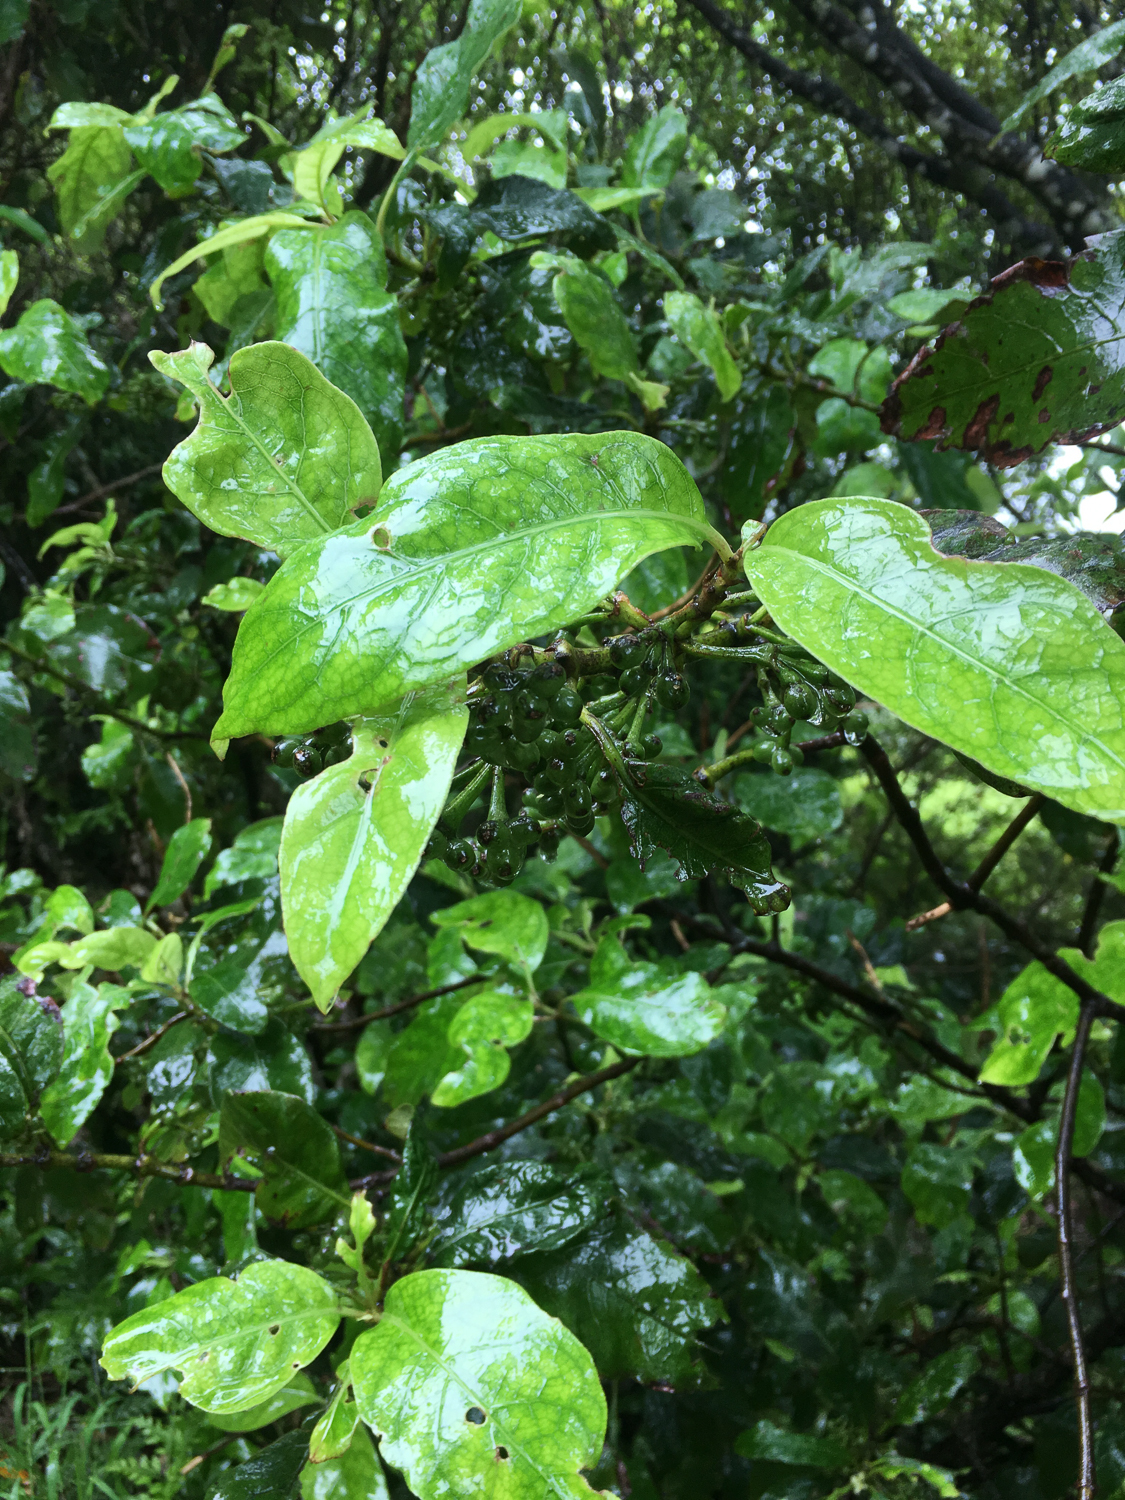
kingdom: Plantae
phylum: Tracheophyta
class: Magnoliopsida
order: Gentianales
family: Rubiaceae
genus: Coprosma
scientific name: Coprosma autumnalis
